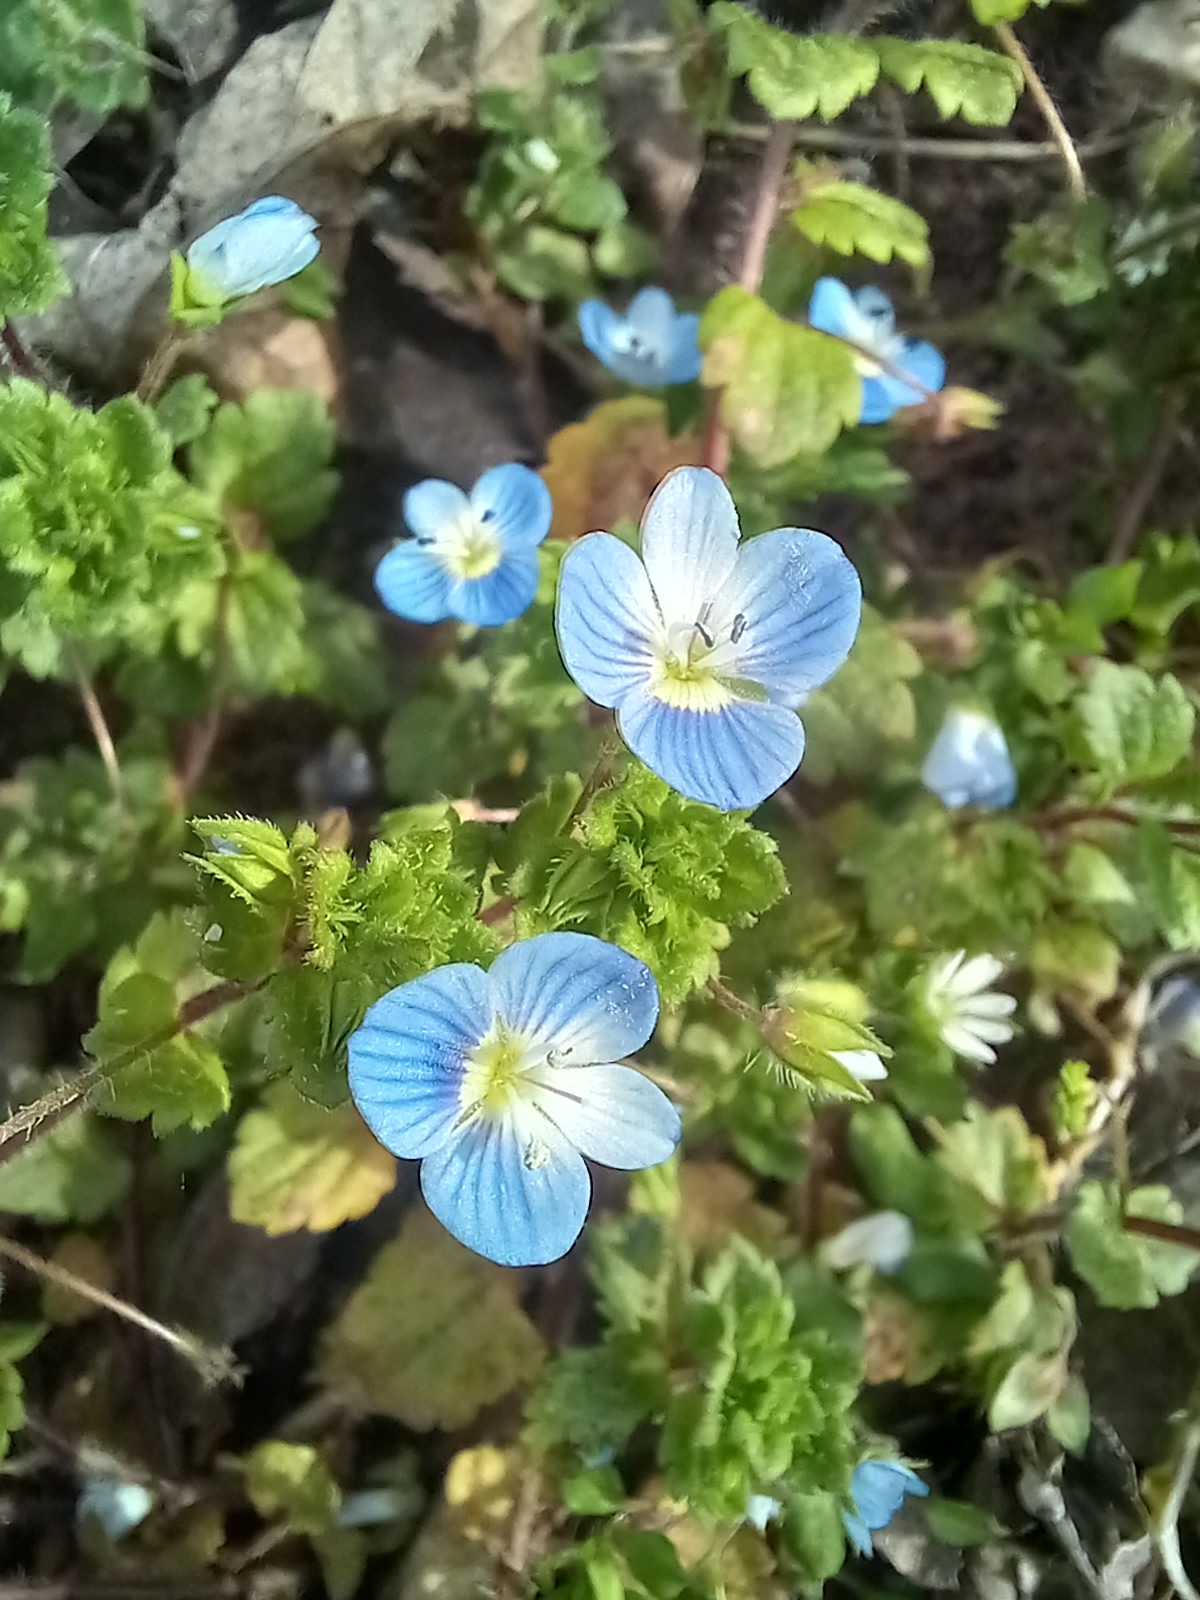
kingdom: Plantae
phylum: Tracheophyta
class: Magnoliopsida
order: Lamiales
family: Plantaginaceae
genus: Veronica
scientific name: Veronica persica
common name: Common field-speedwell
